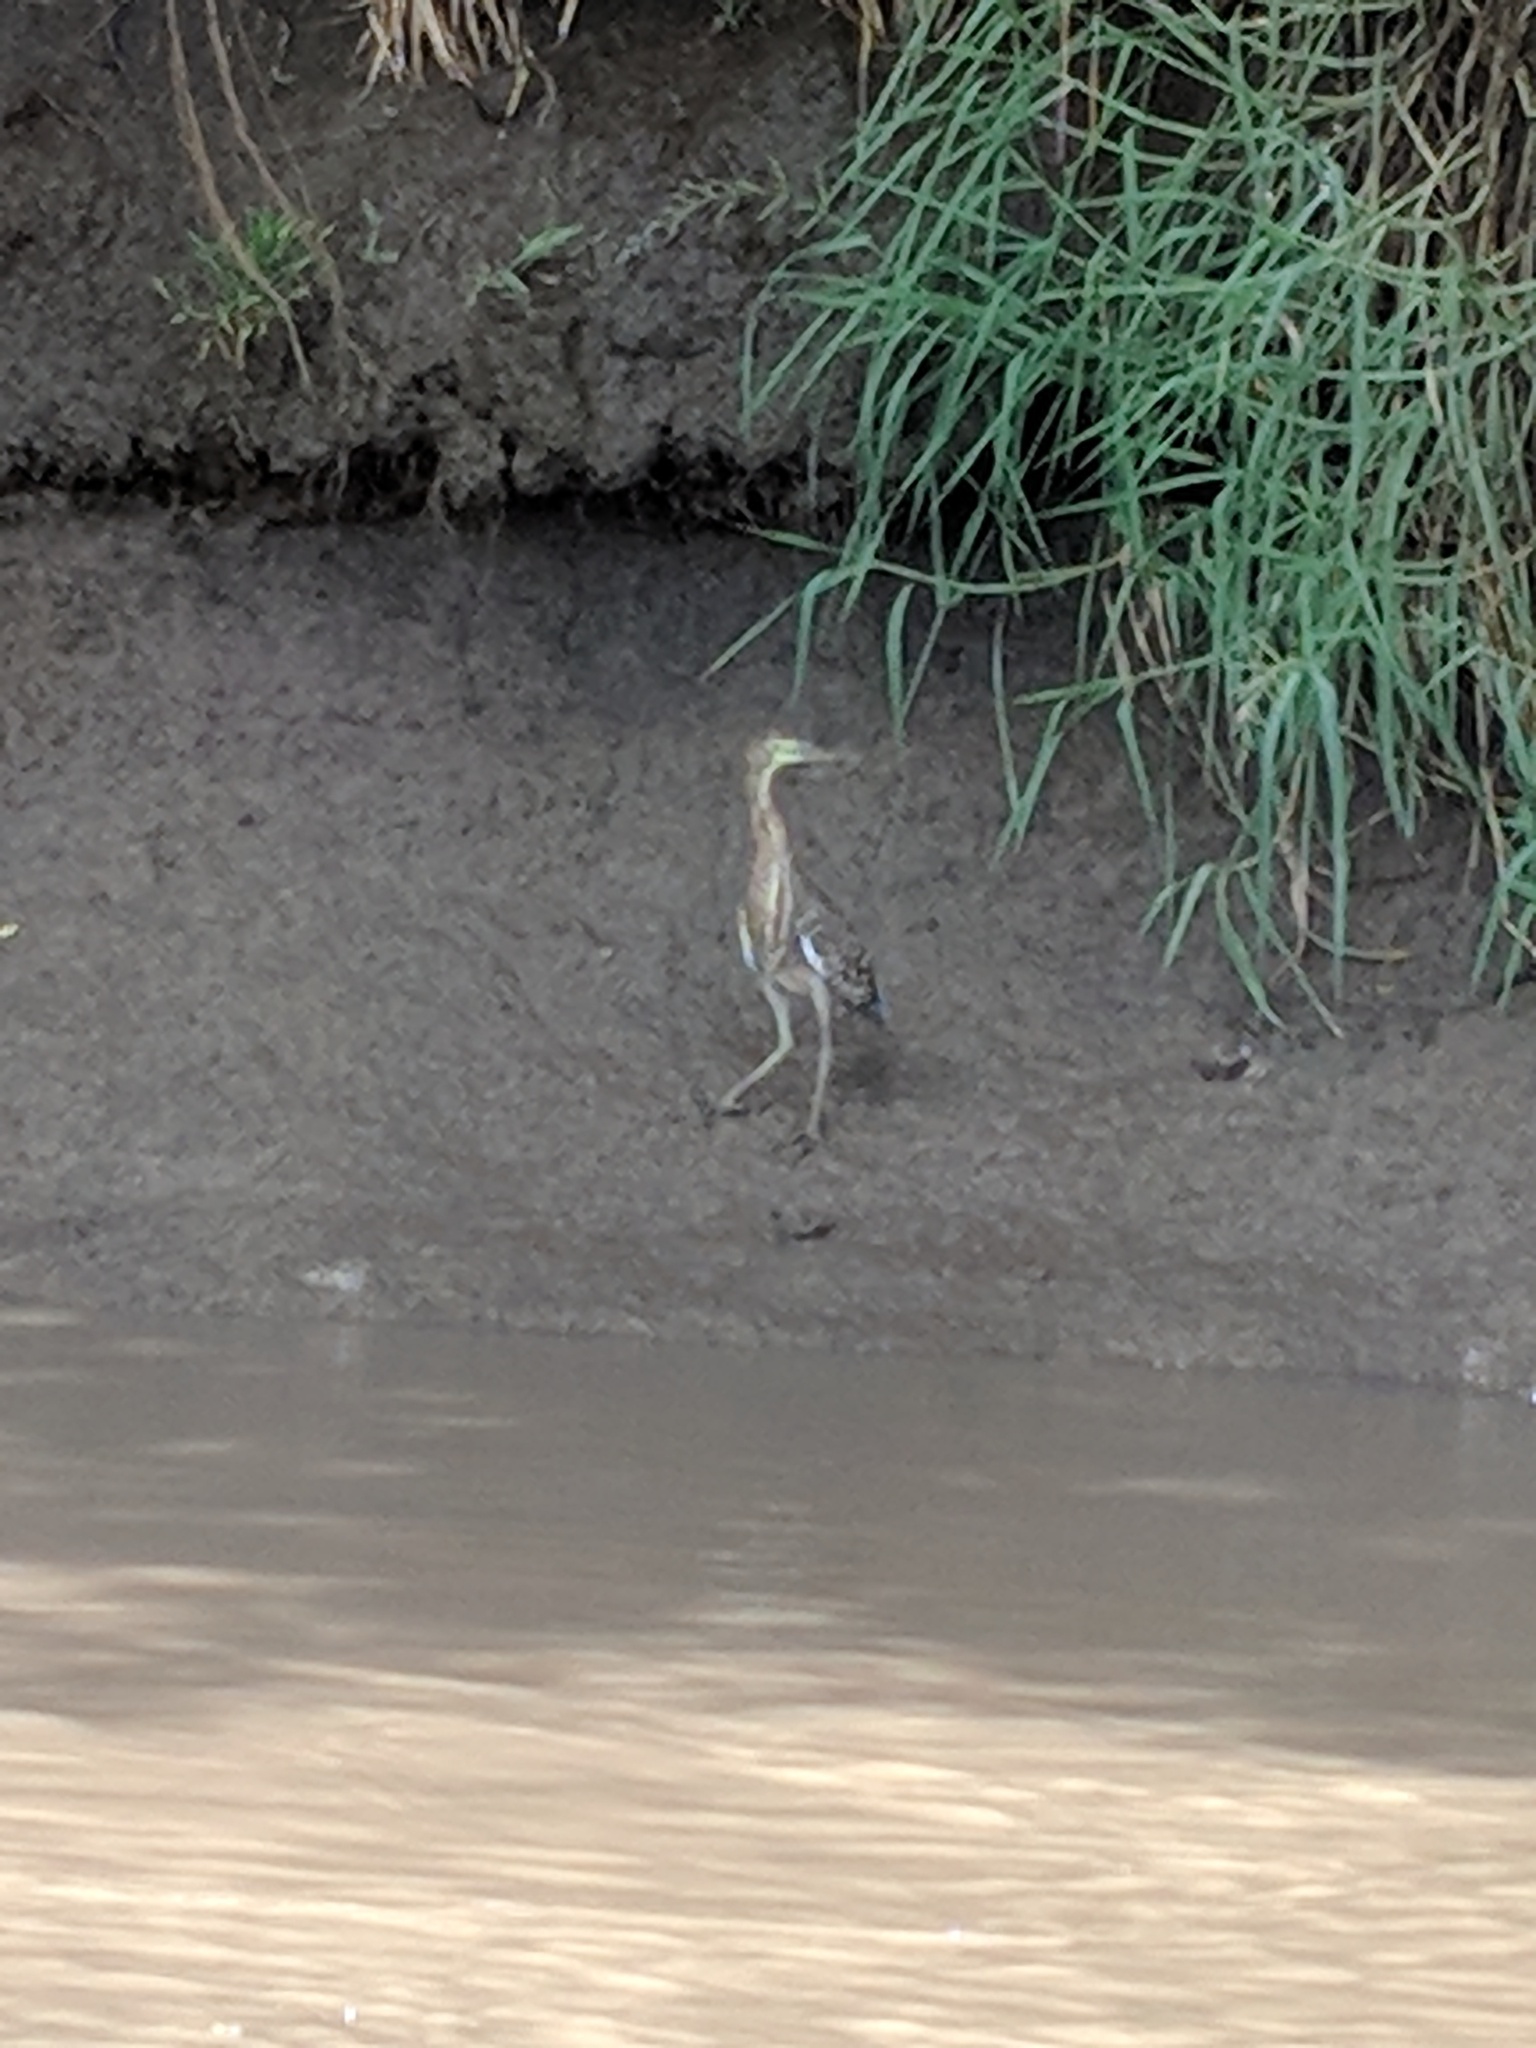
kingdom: Animalia
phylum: Chordata
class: Aves
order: Pelecaniformes
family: Ardeidae
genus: Tigrisoma
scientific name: Tigrisoma mexicanum
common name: Bare-throated tiger-heron
